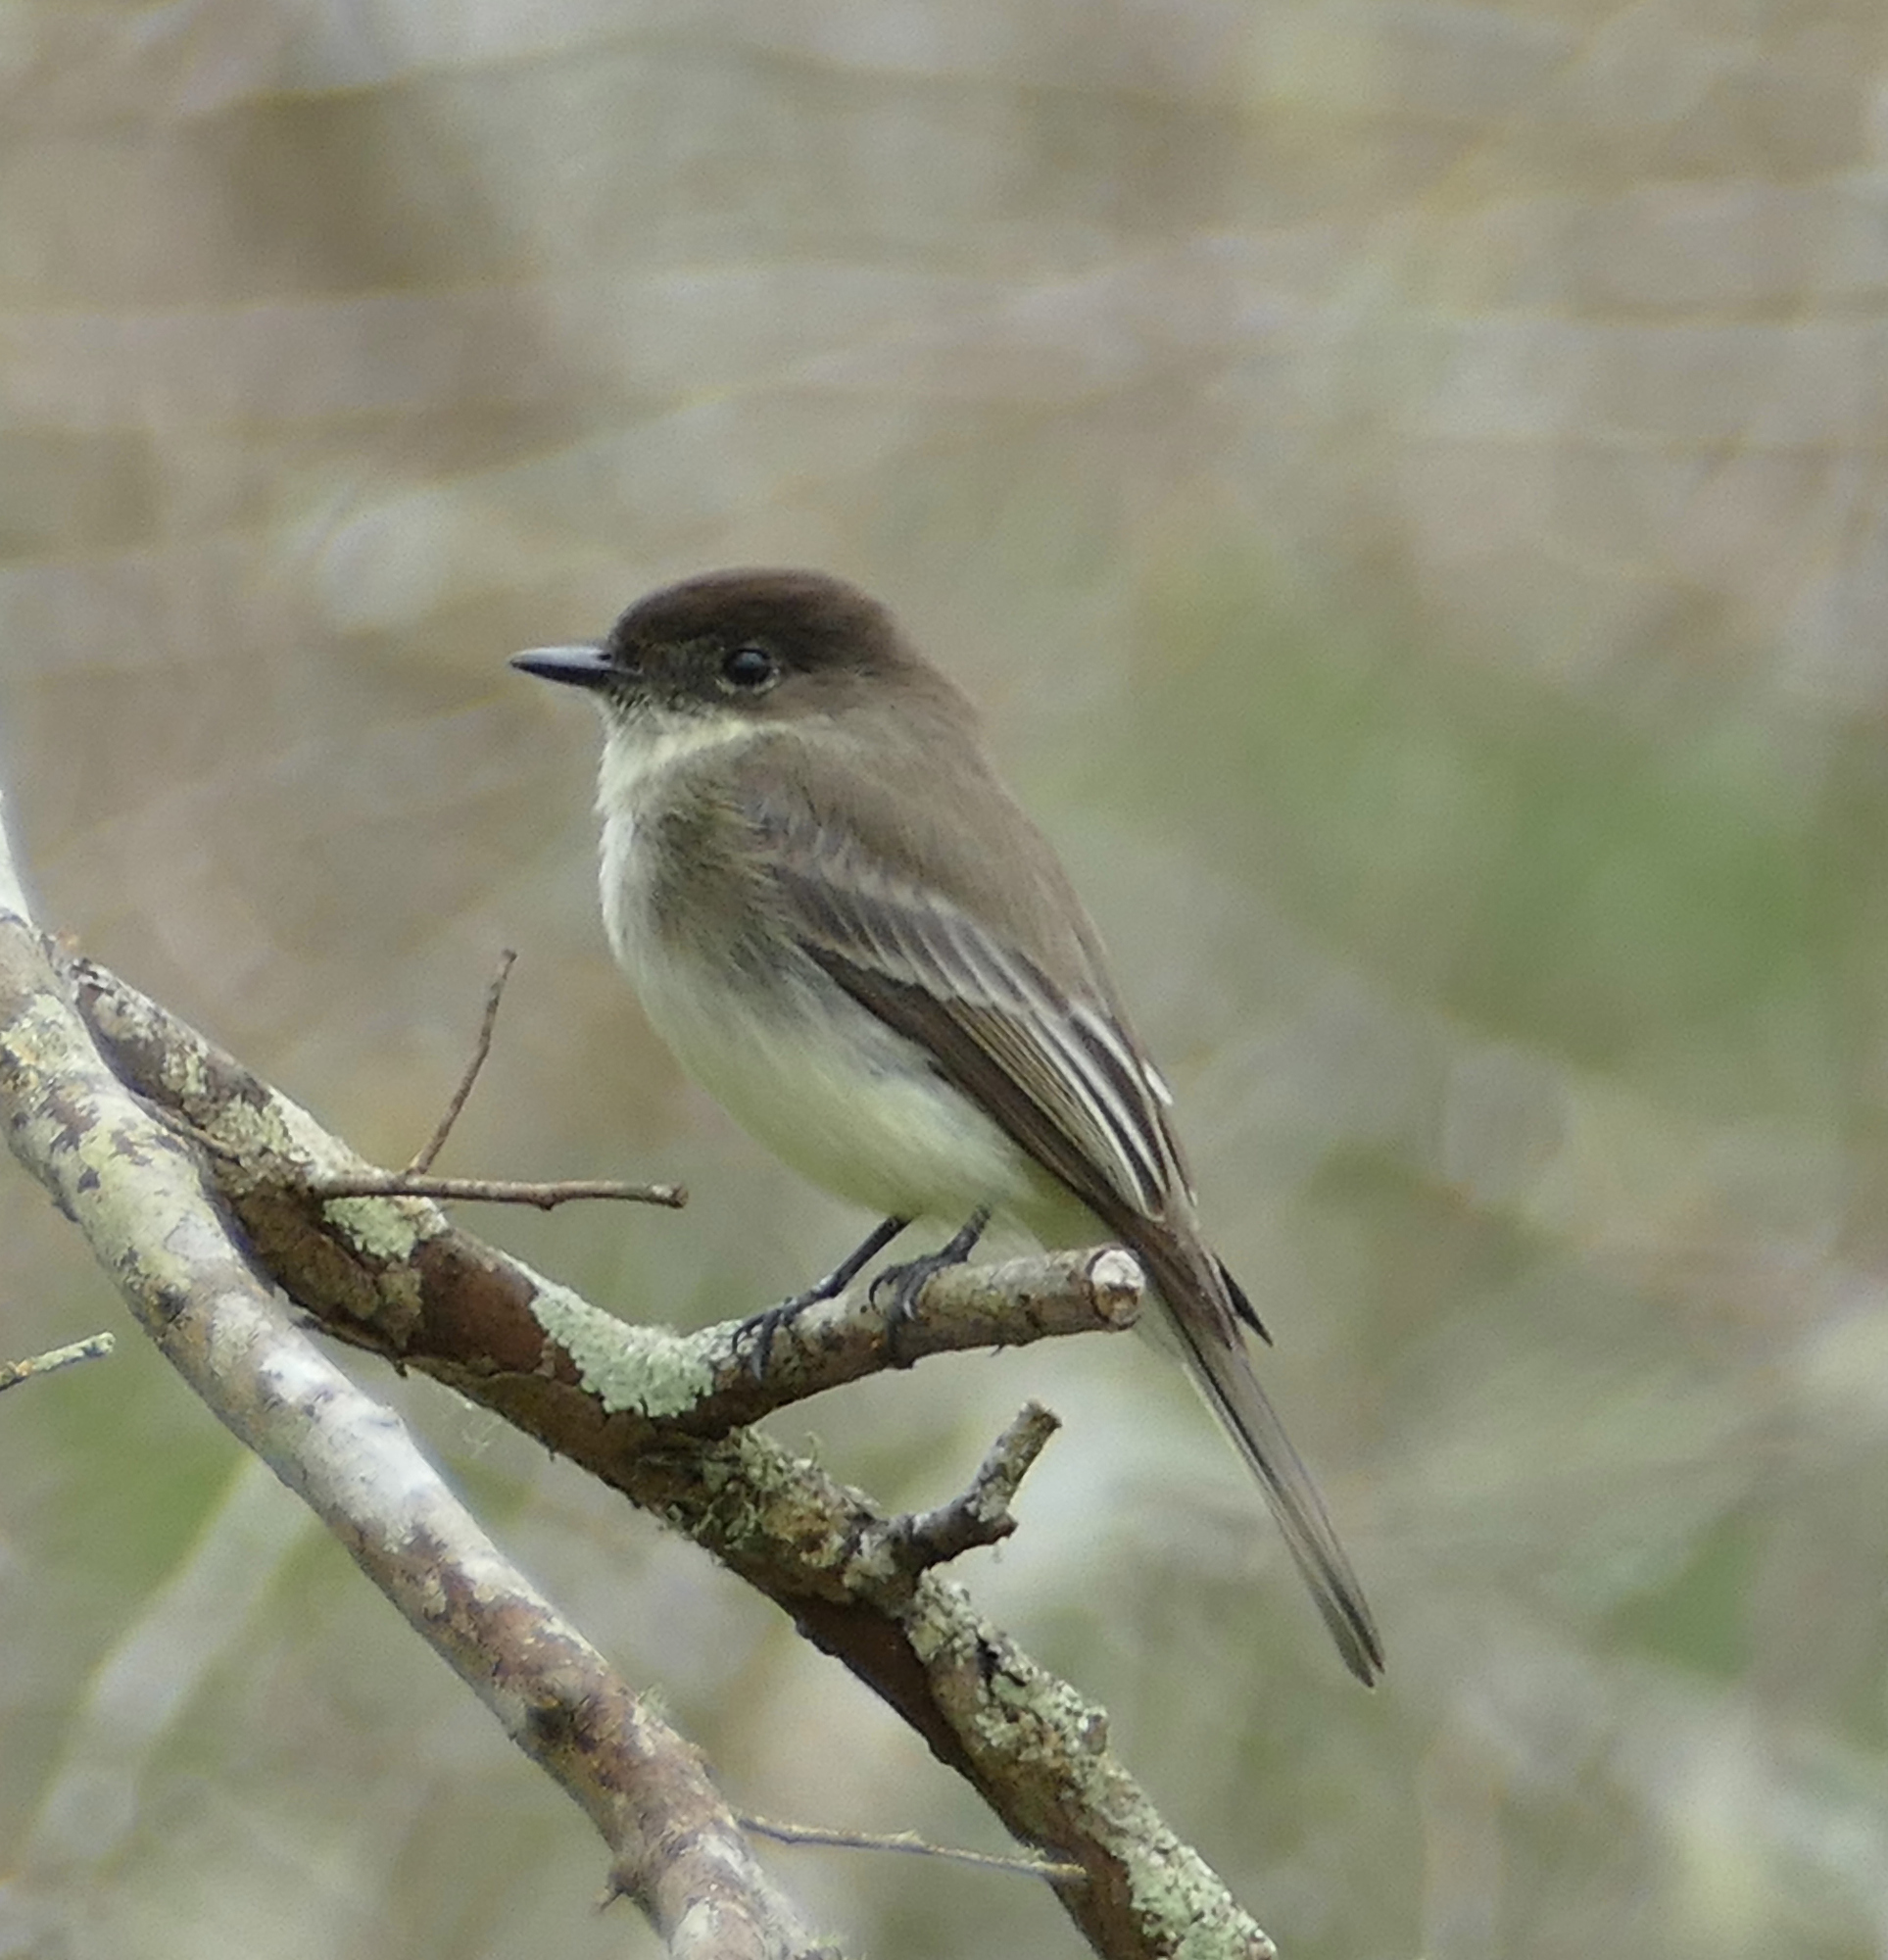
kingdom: Animalia
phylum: Chordata
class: Aves
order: Passeriformes
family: Tyrannidae
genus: Sayornis
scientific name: Sayornis phoebe
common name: Eastern phoebe
